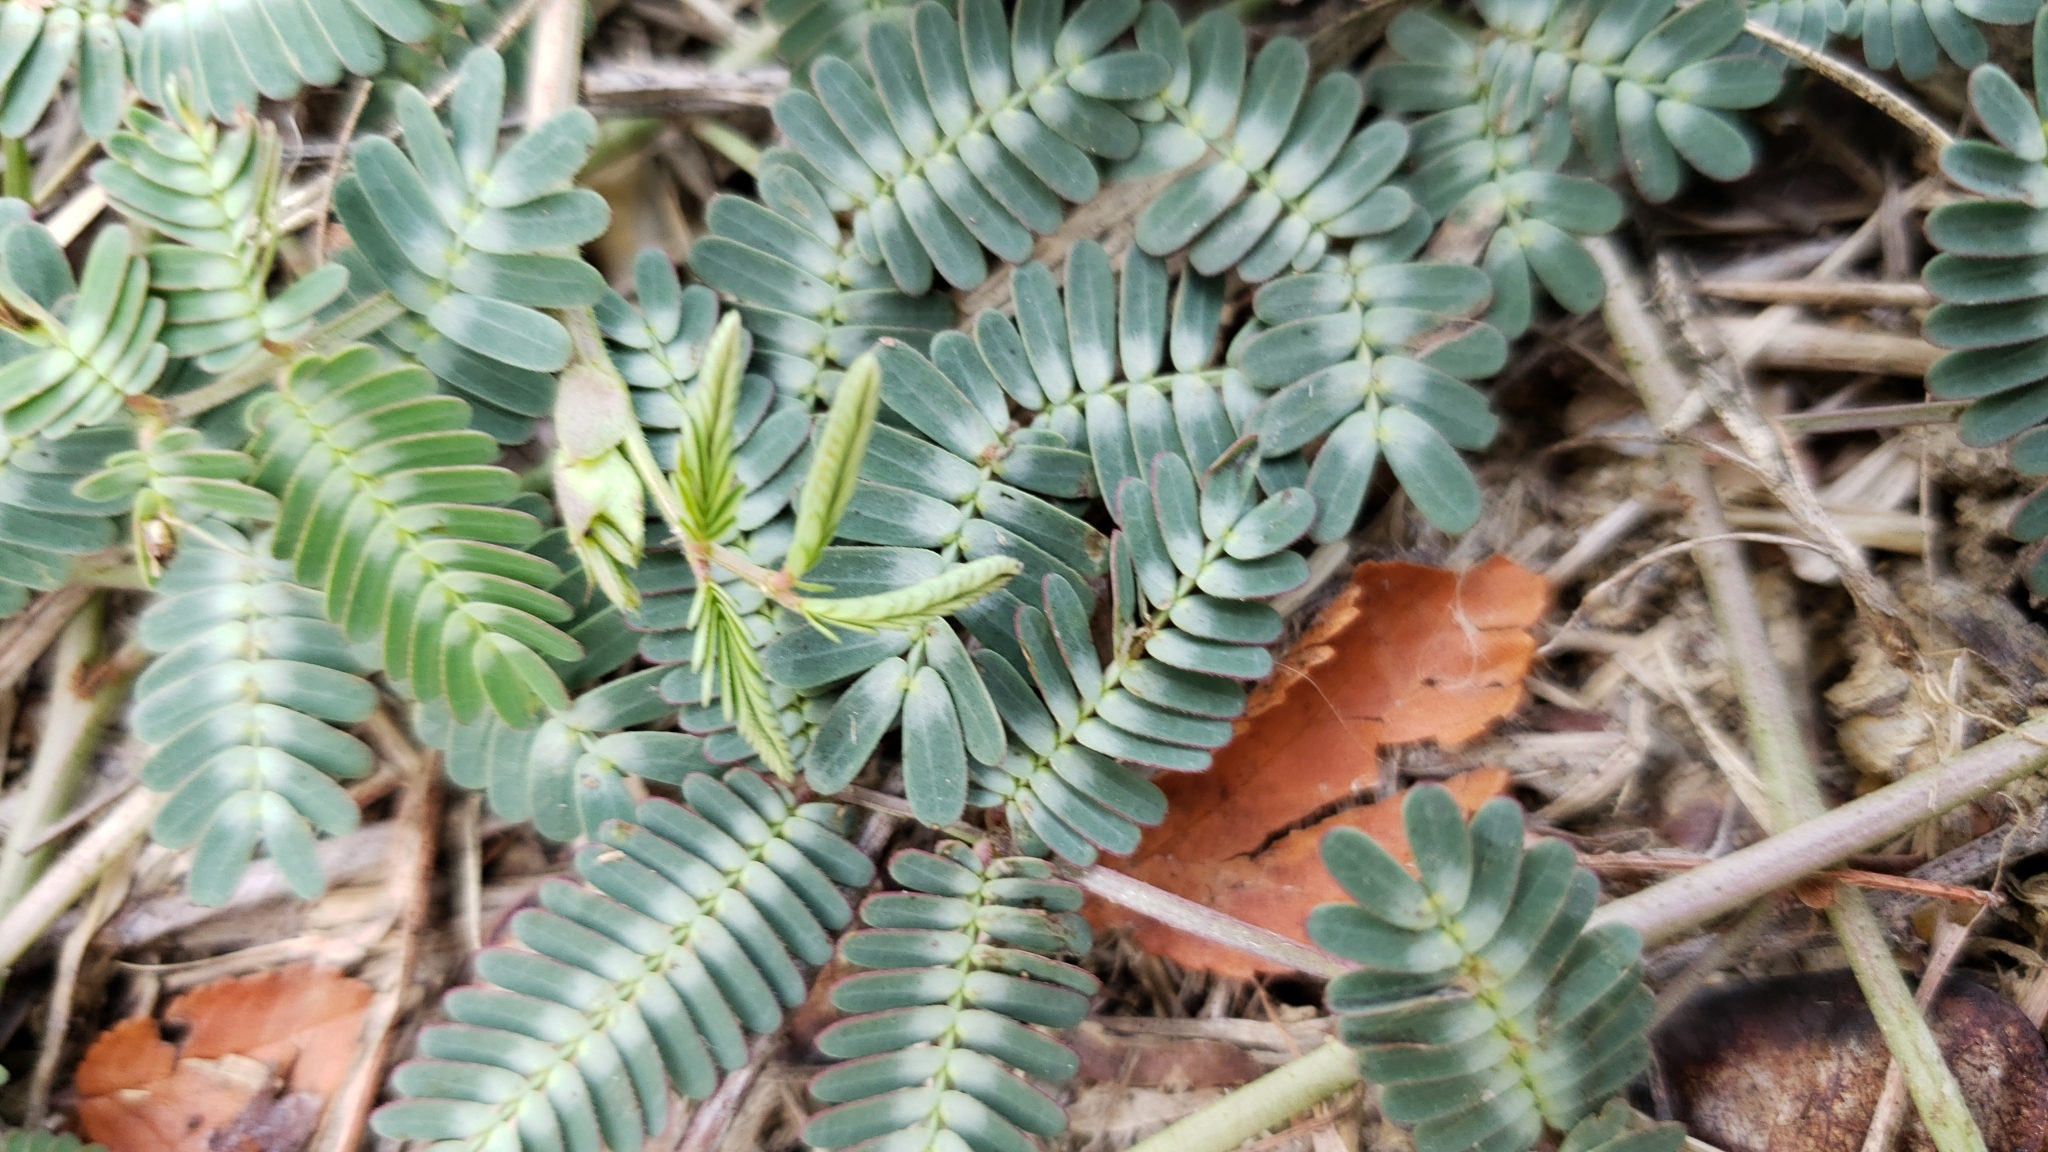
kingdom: Plantae
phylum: Tracheophyta
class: Magnoliopsida
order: Fabales
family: Fabaceae
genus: Neptunia
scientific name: Neptunia pubescens
